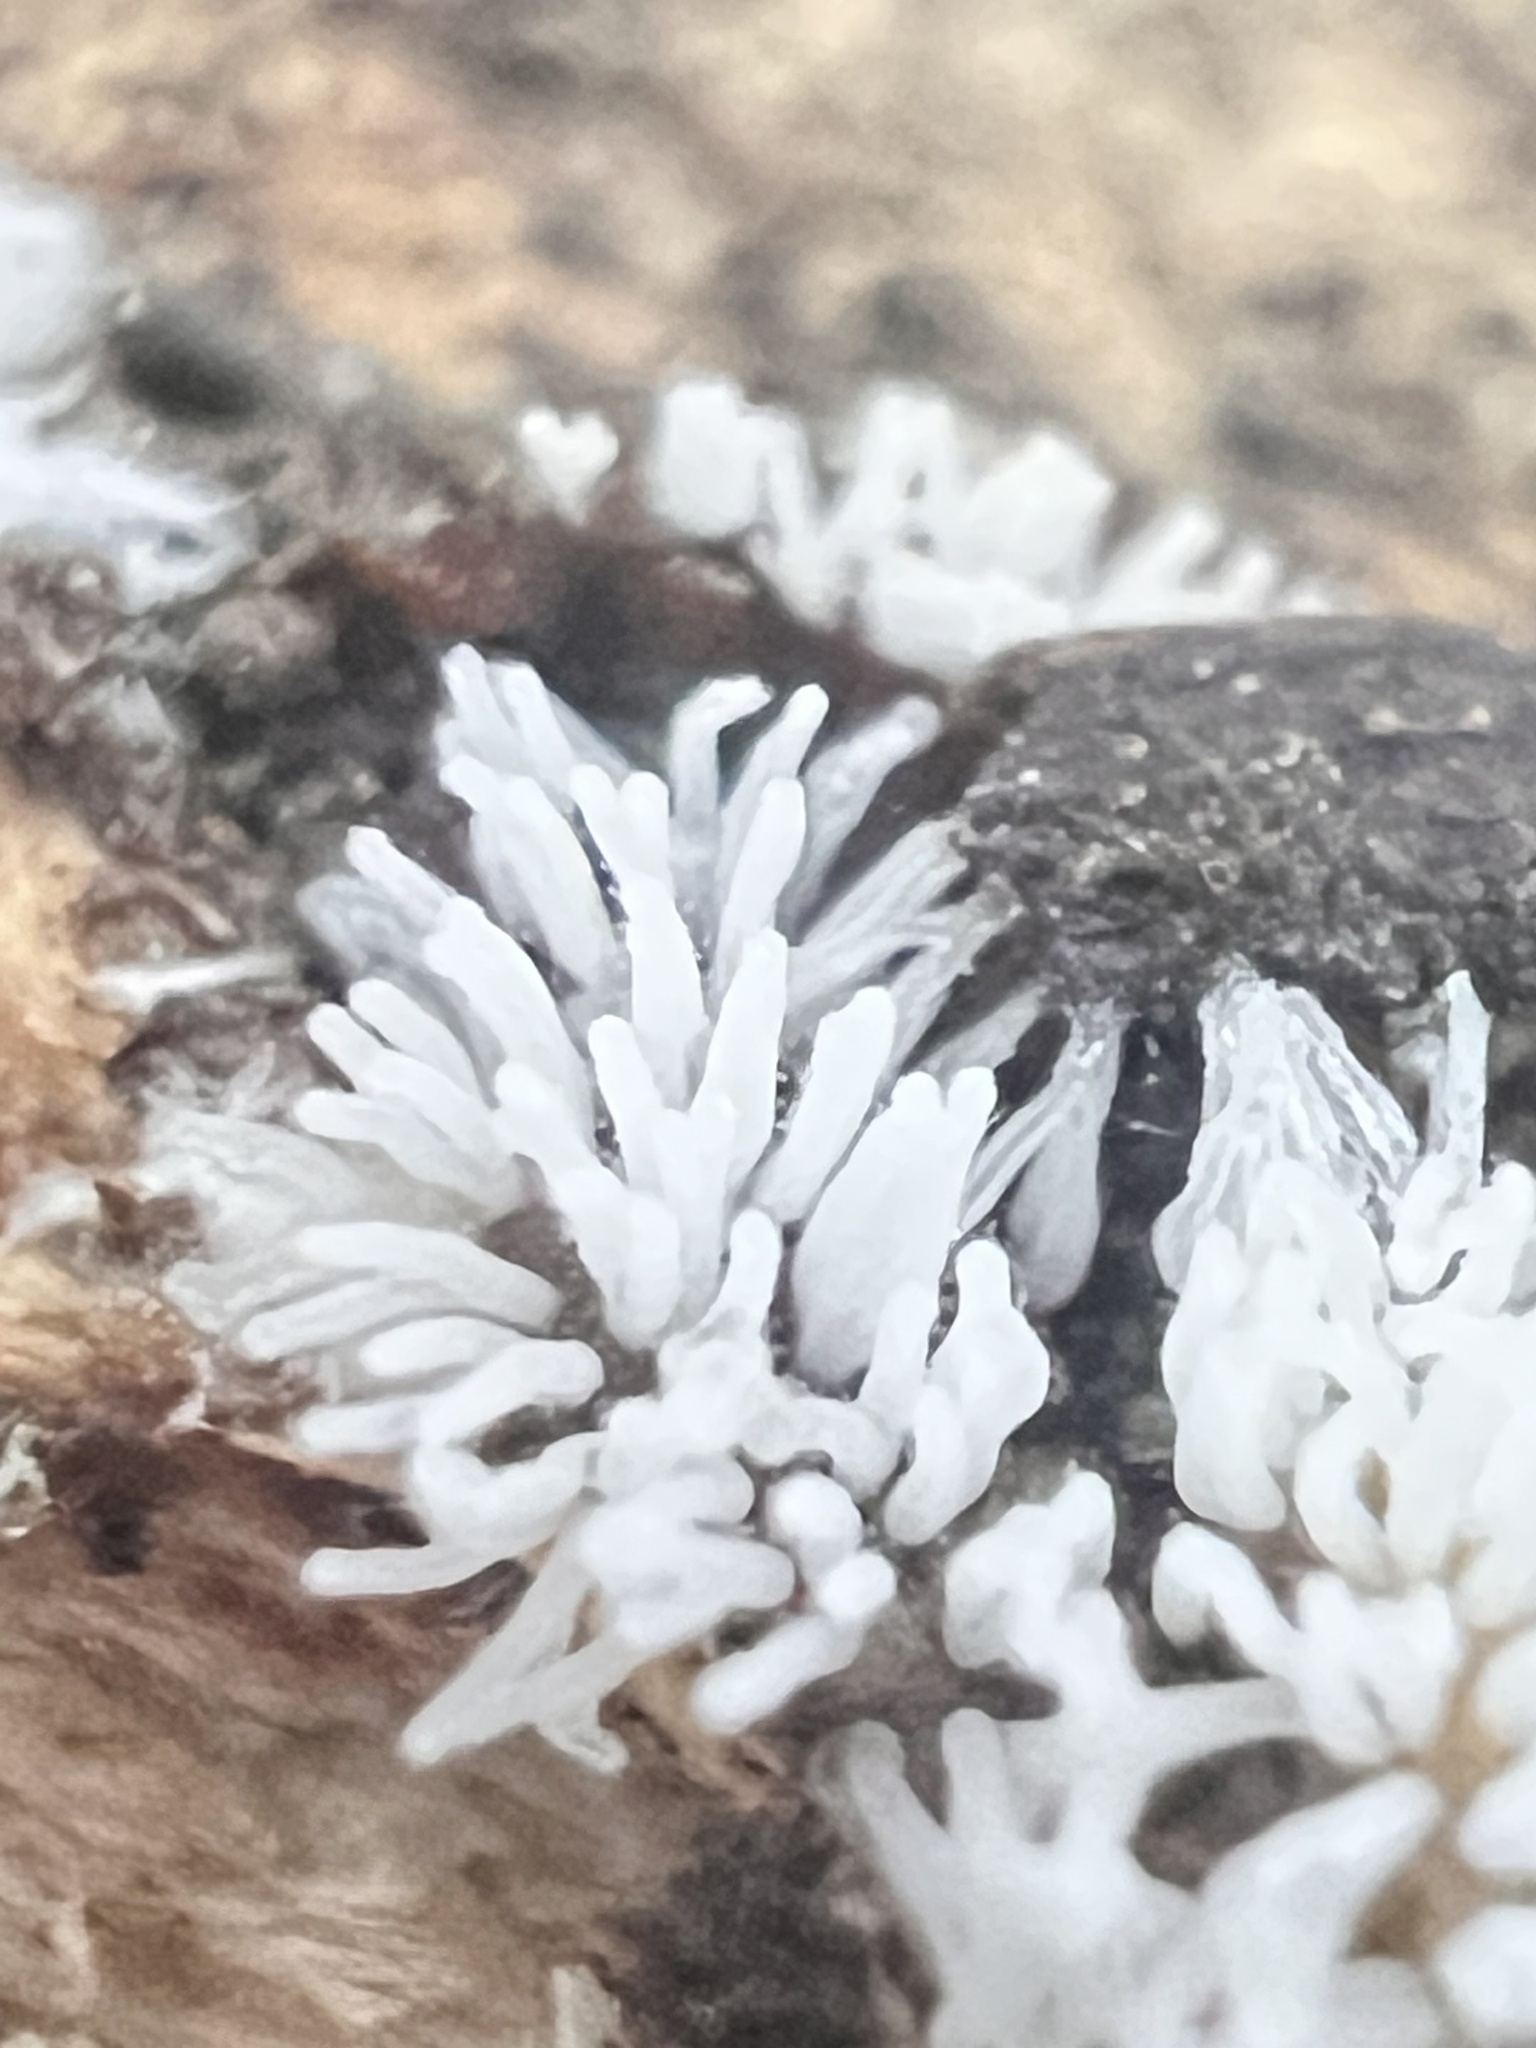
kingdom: Protozoa
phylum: Mycetozoa
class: Protosteliomycetes
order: Ceratiomyxales
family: Ceratiomyxaceae
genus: Ceratiomyxa
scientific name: Ceratiomyxa fruticulosa
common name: Honeycomb coral slime mold
